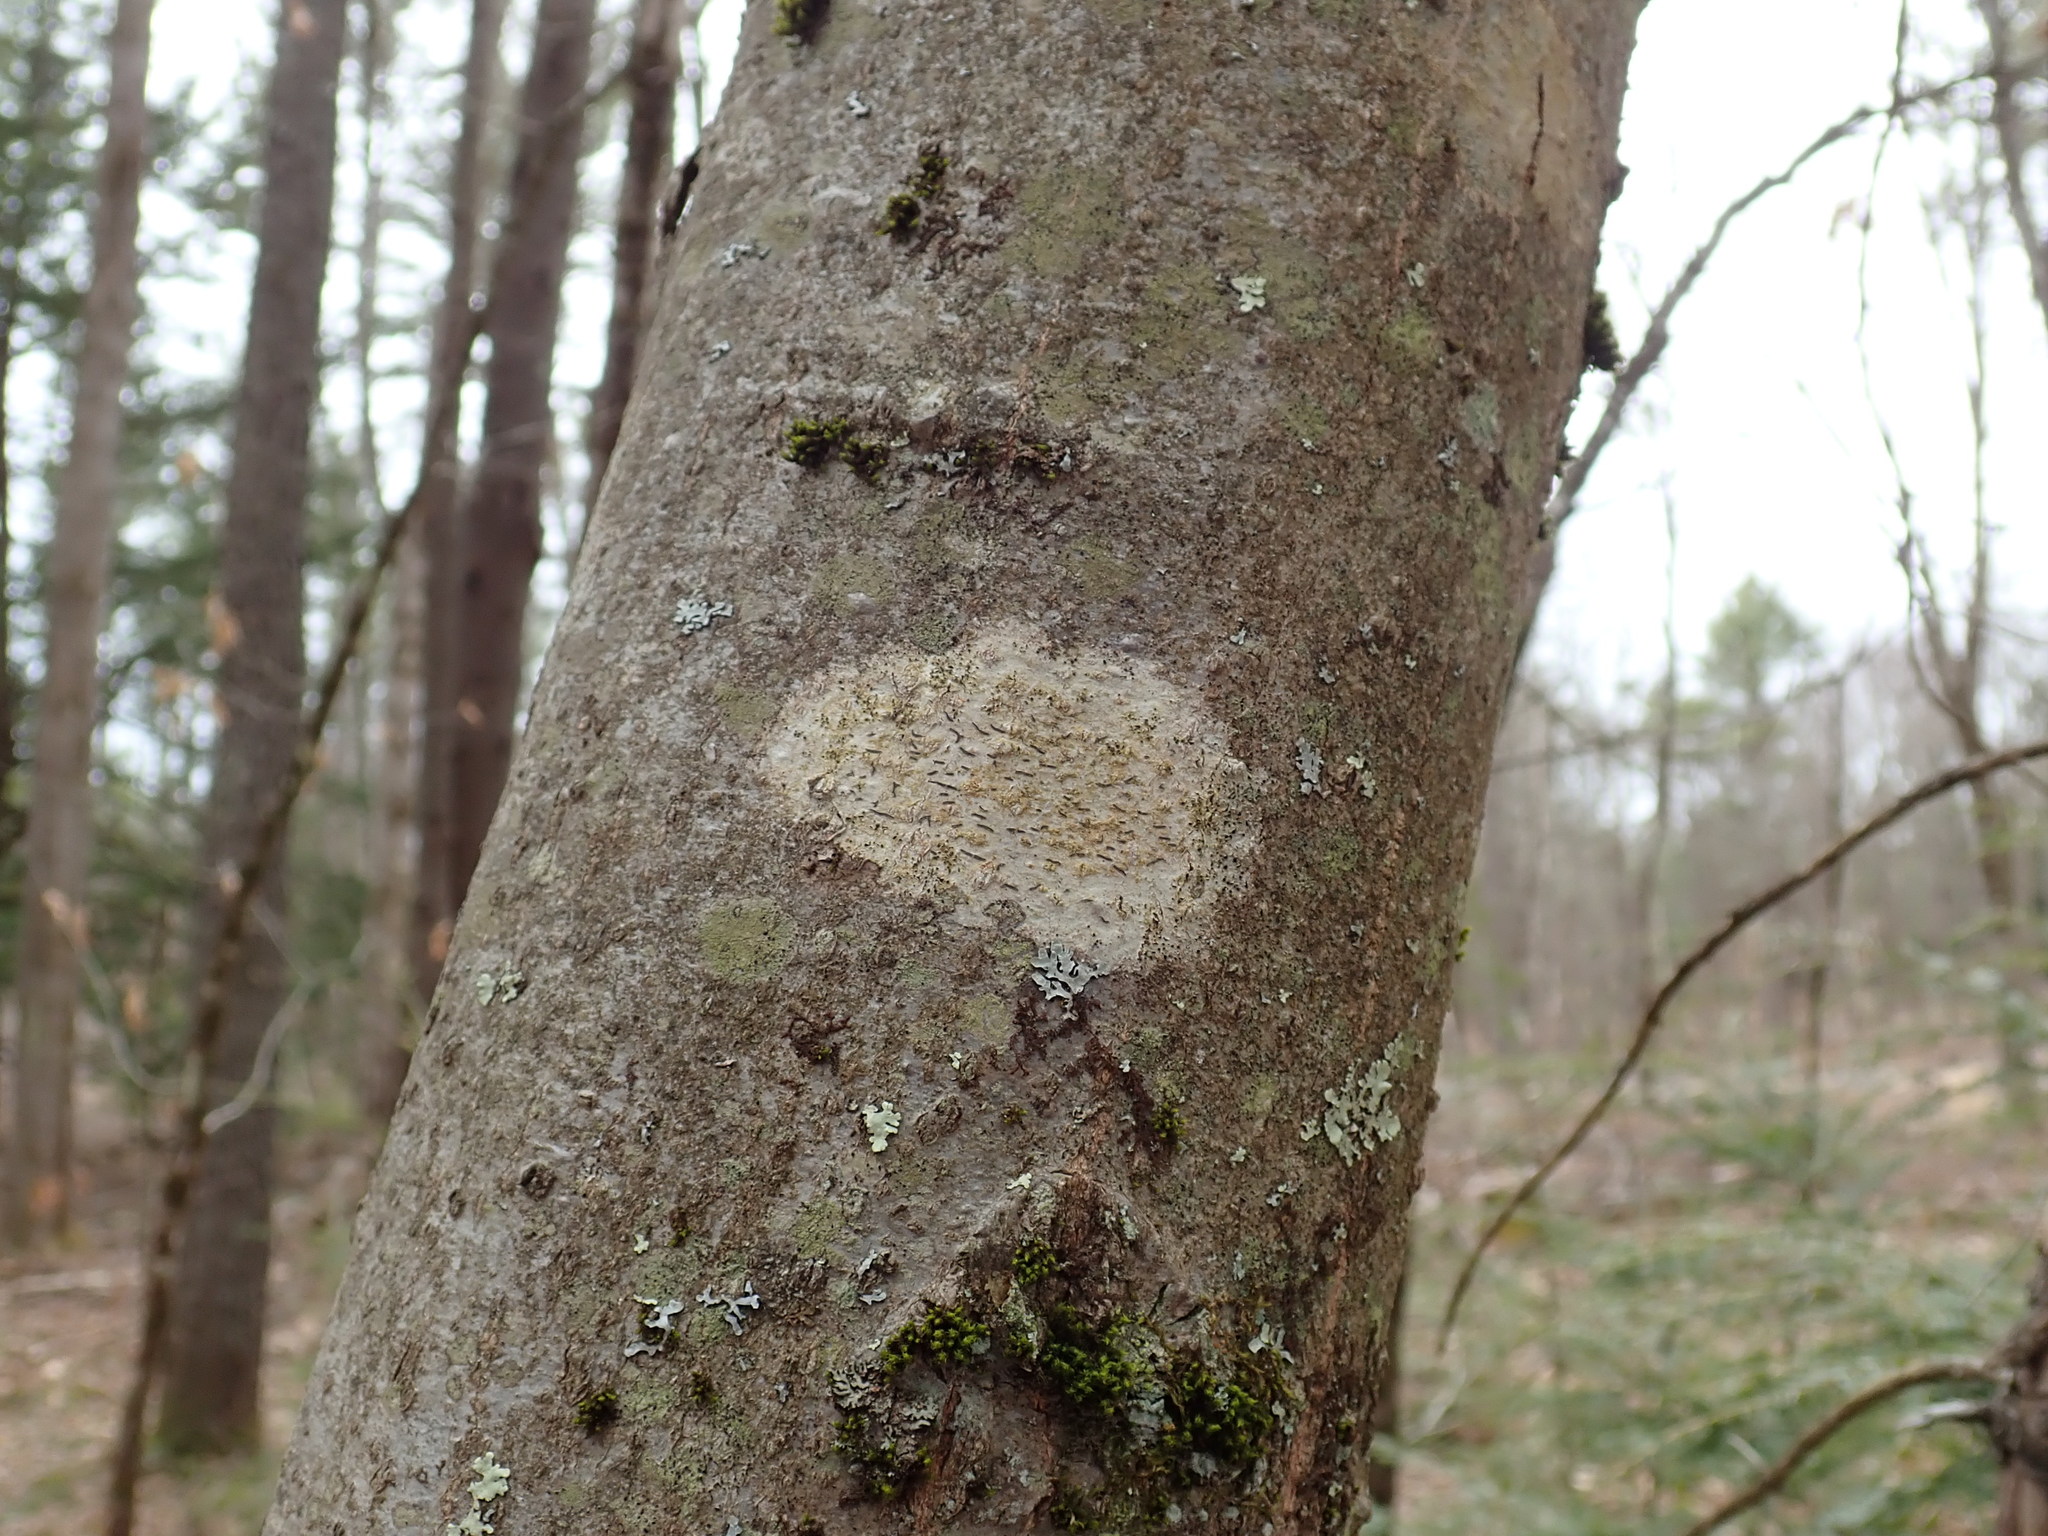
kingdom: Fungi
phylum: Ascomycota
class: Lecanoromycetes
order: Ostropales
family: Graphidaceae
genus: Graphis
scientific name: Graphis scripta
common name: Script lichen
